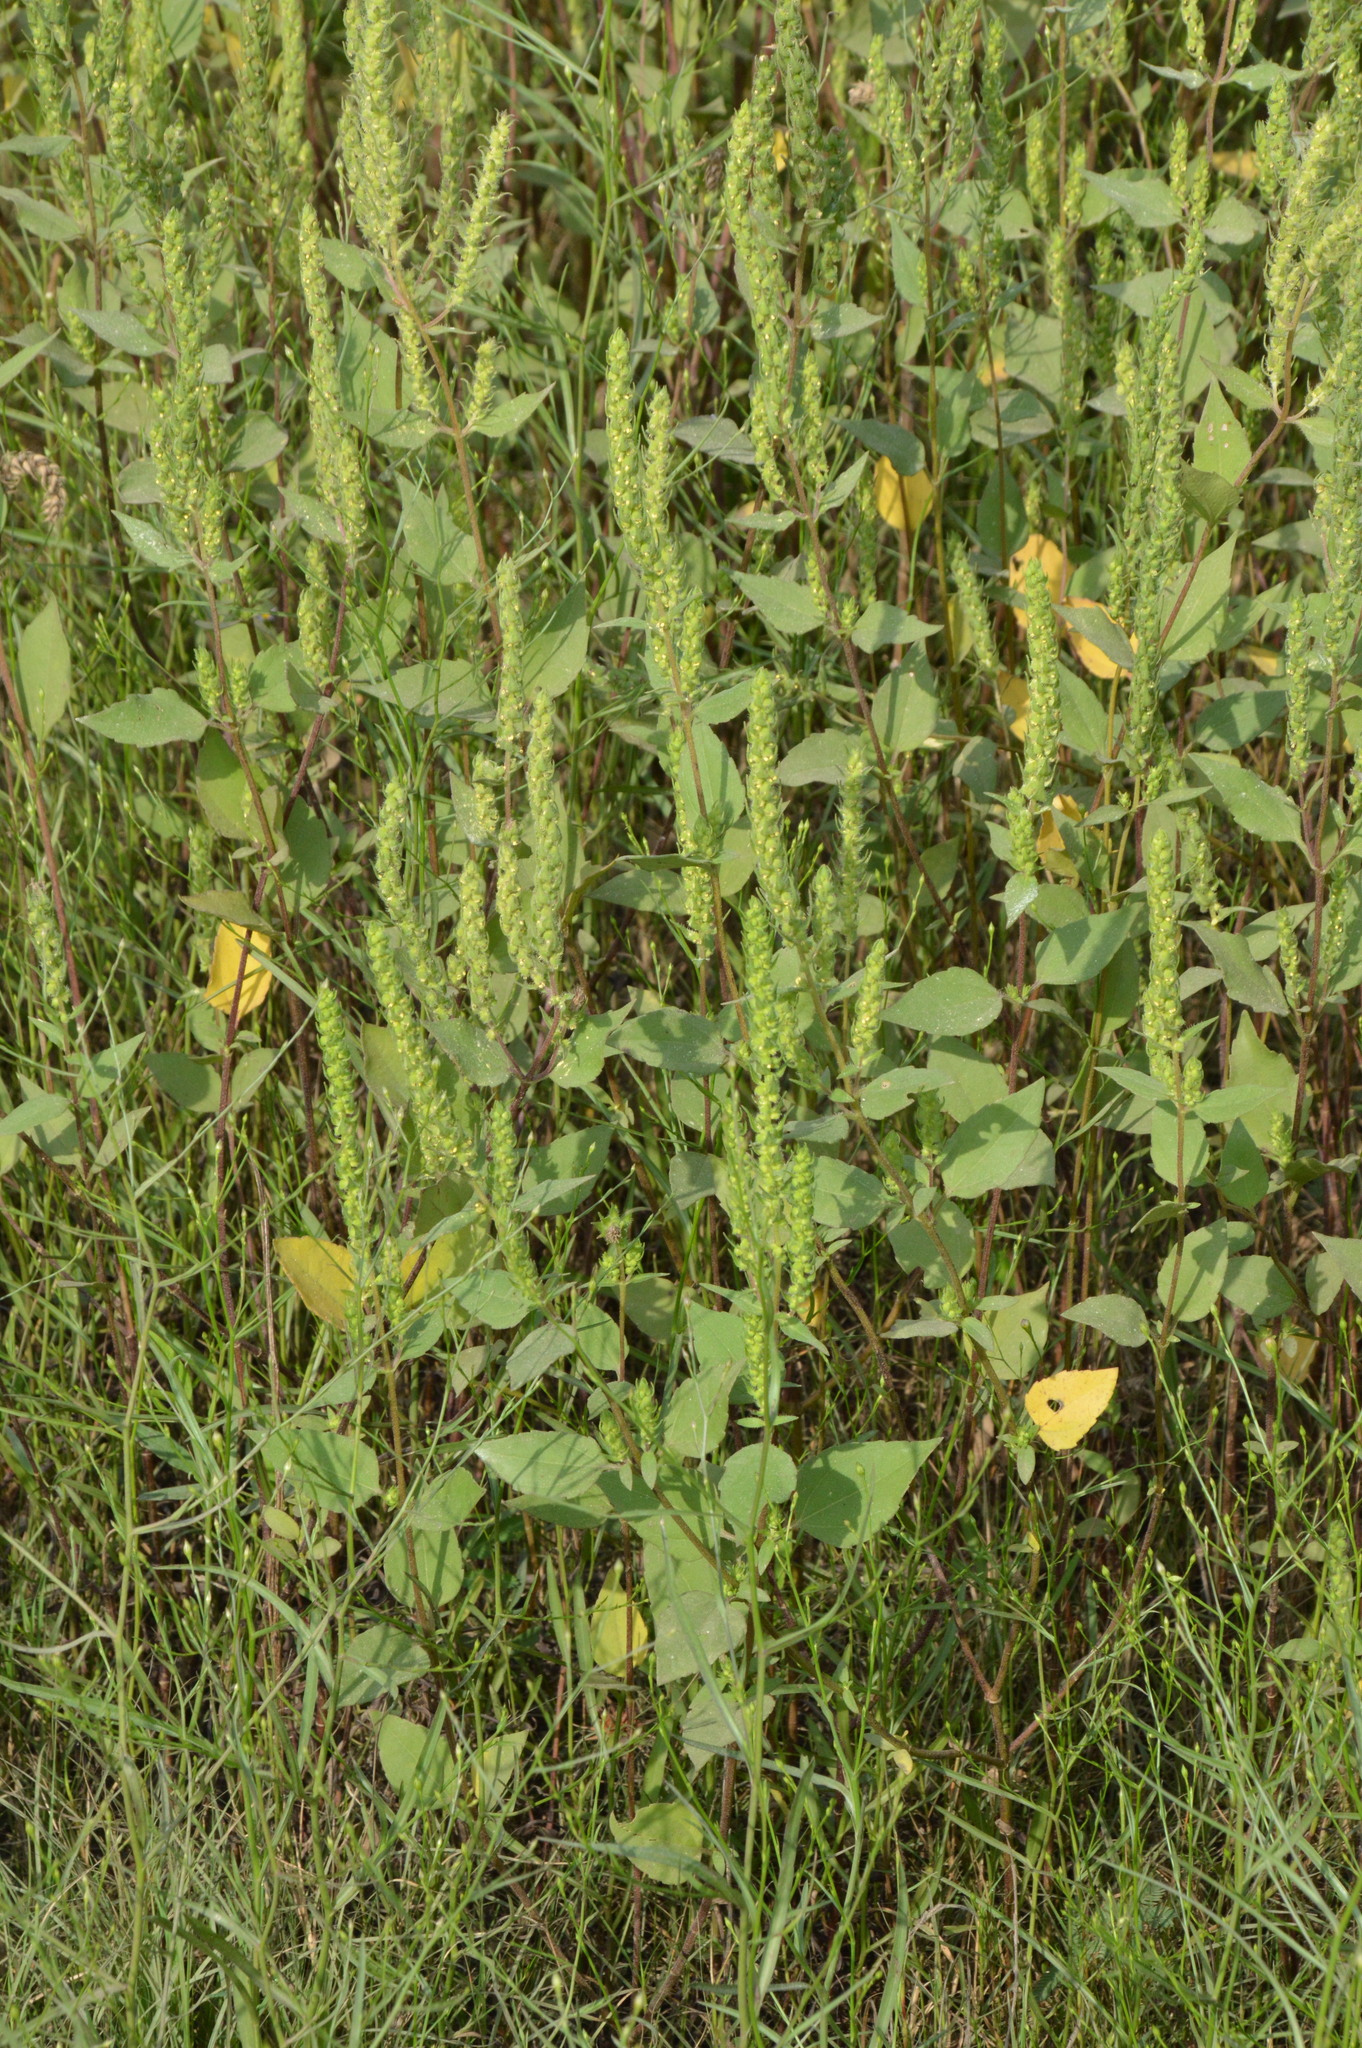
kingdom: Plantae
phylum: Tracheophyta
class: Magnoliopsida
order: Asterales
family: Asteraceae
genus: Iva
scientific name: Iva annua
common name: Marsh-elder
